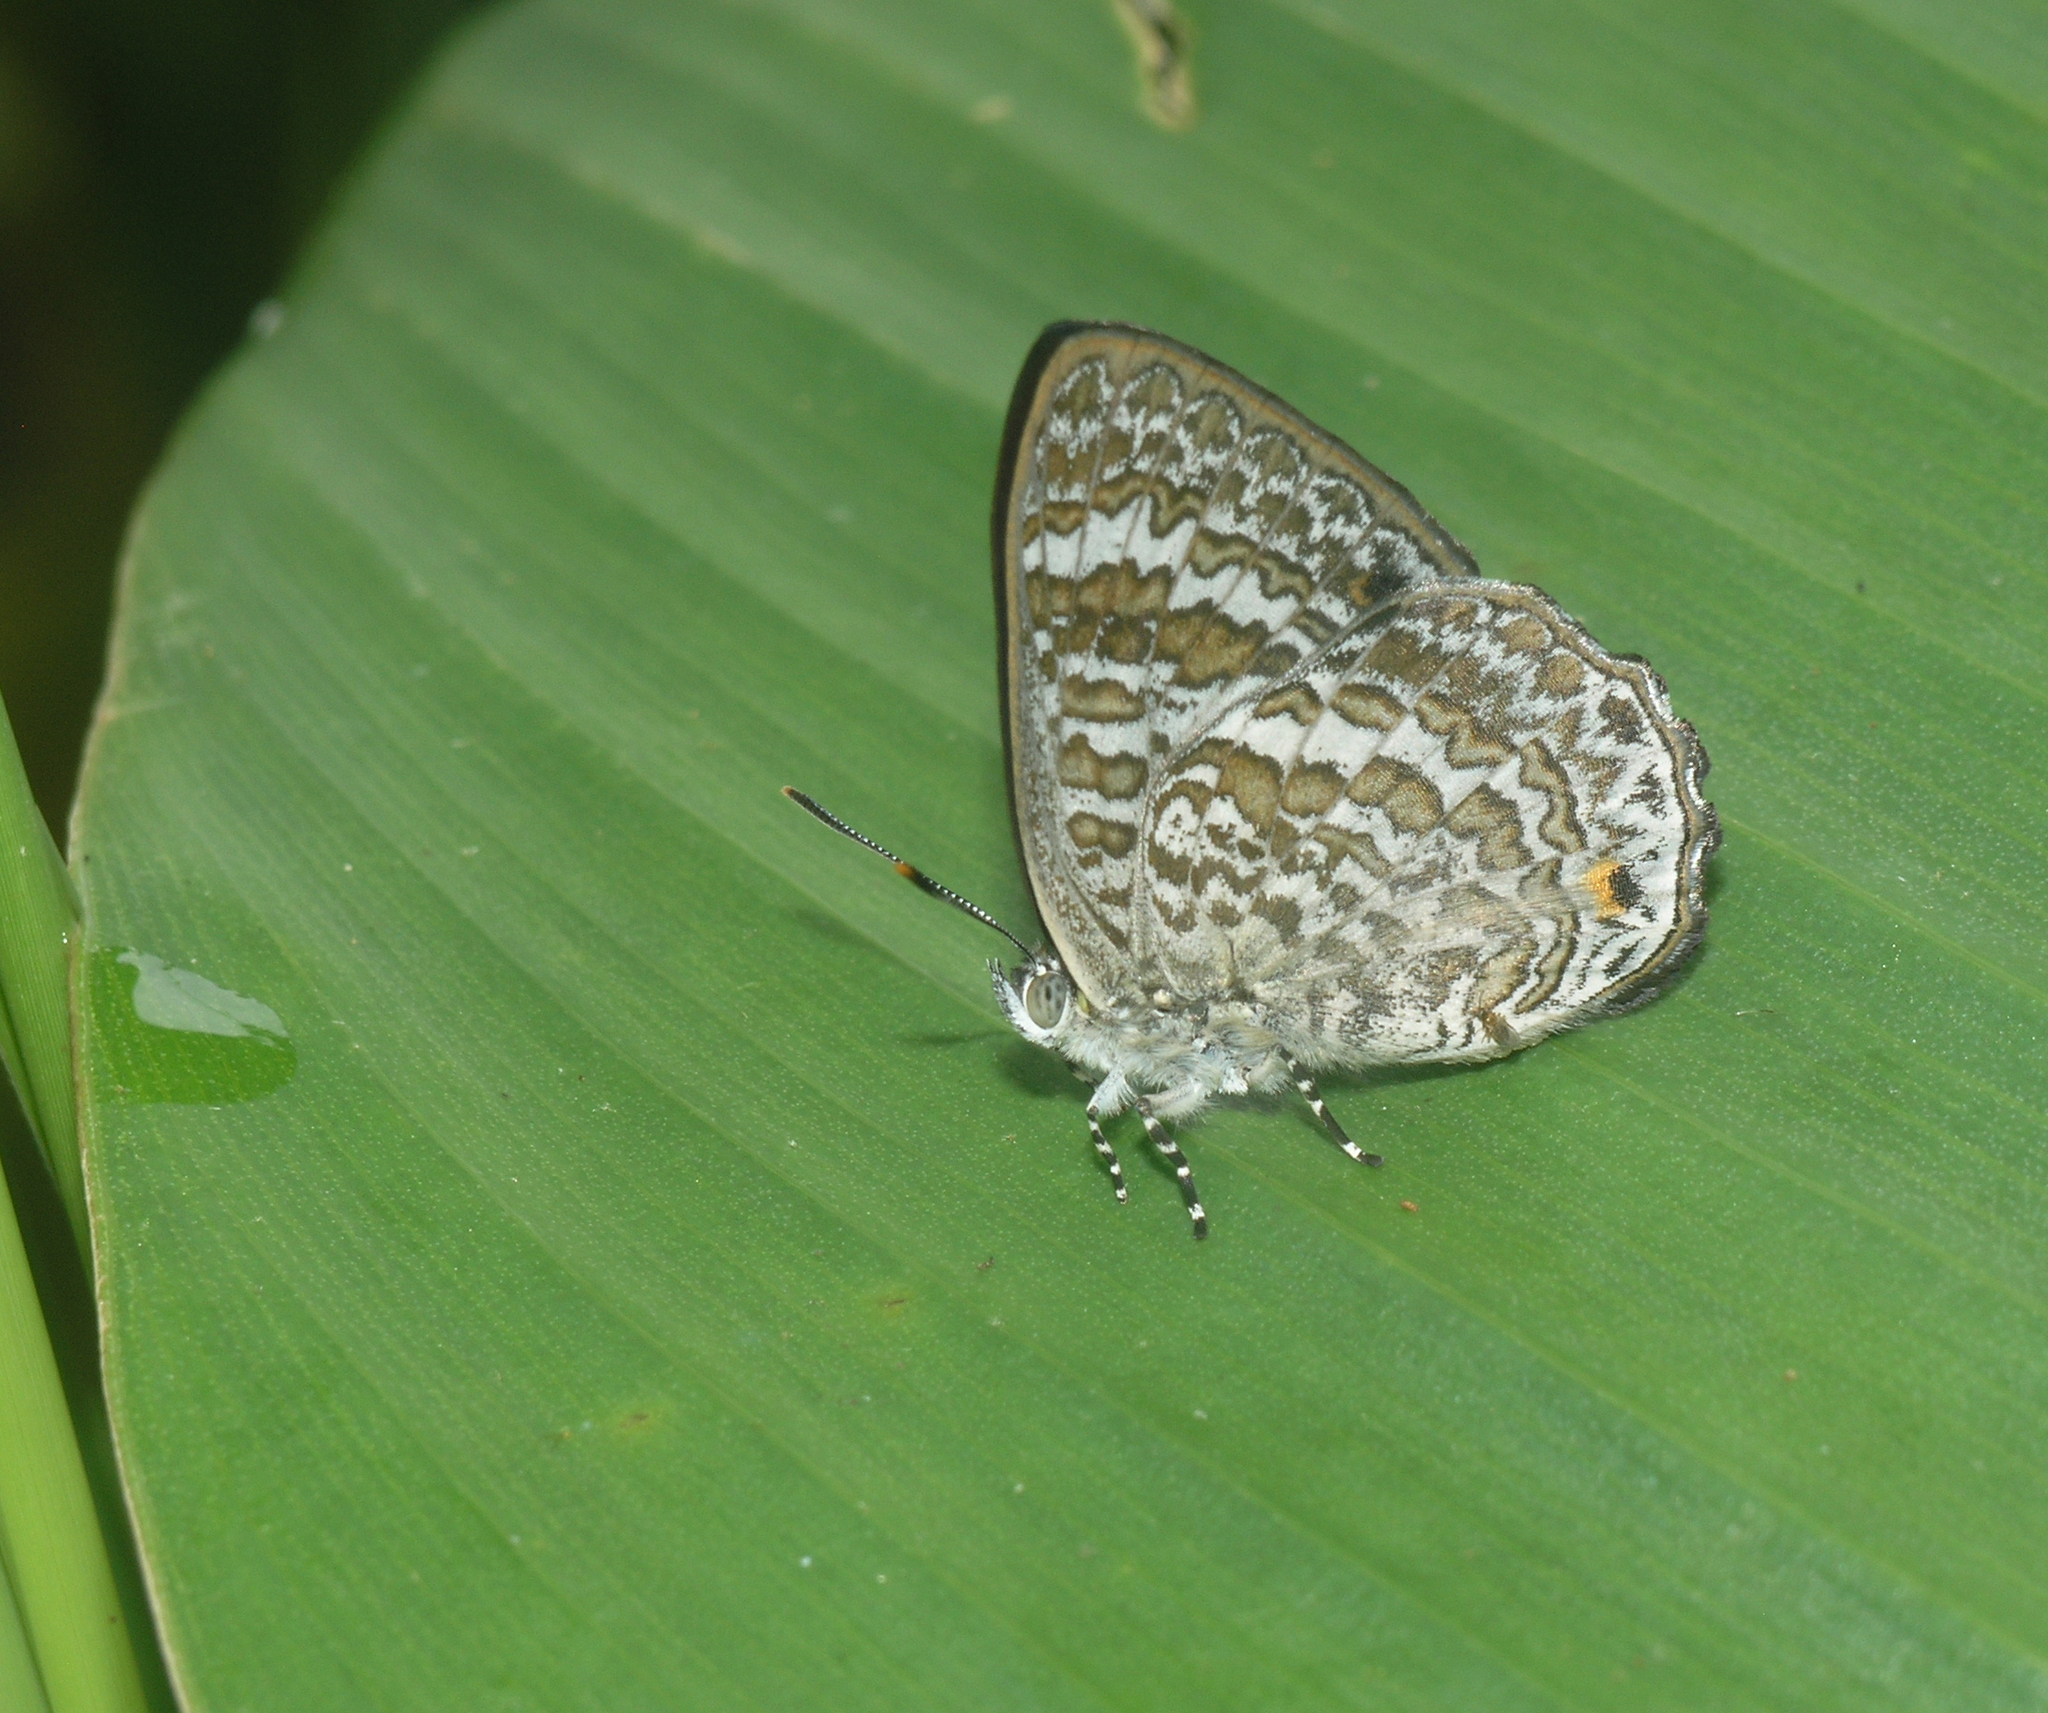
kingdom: Animalia
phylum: Arthropoda
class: Insecta
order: Lepidoptera
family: Lycaenidae
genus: Poritia
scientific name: Poritia erycinoides
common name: Blue gem
